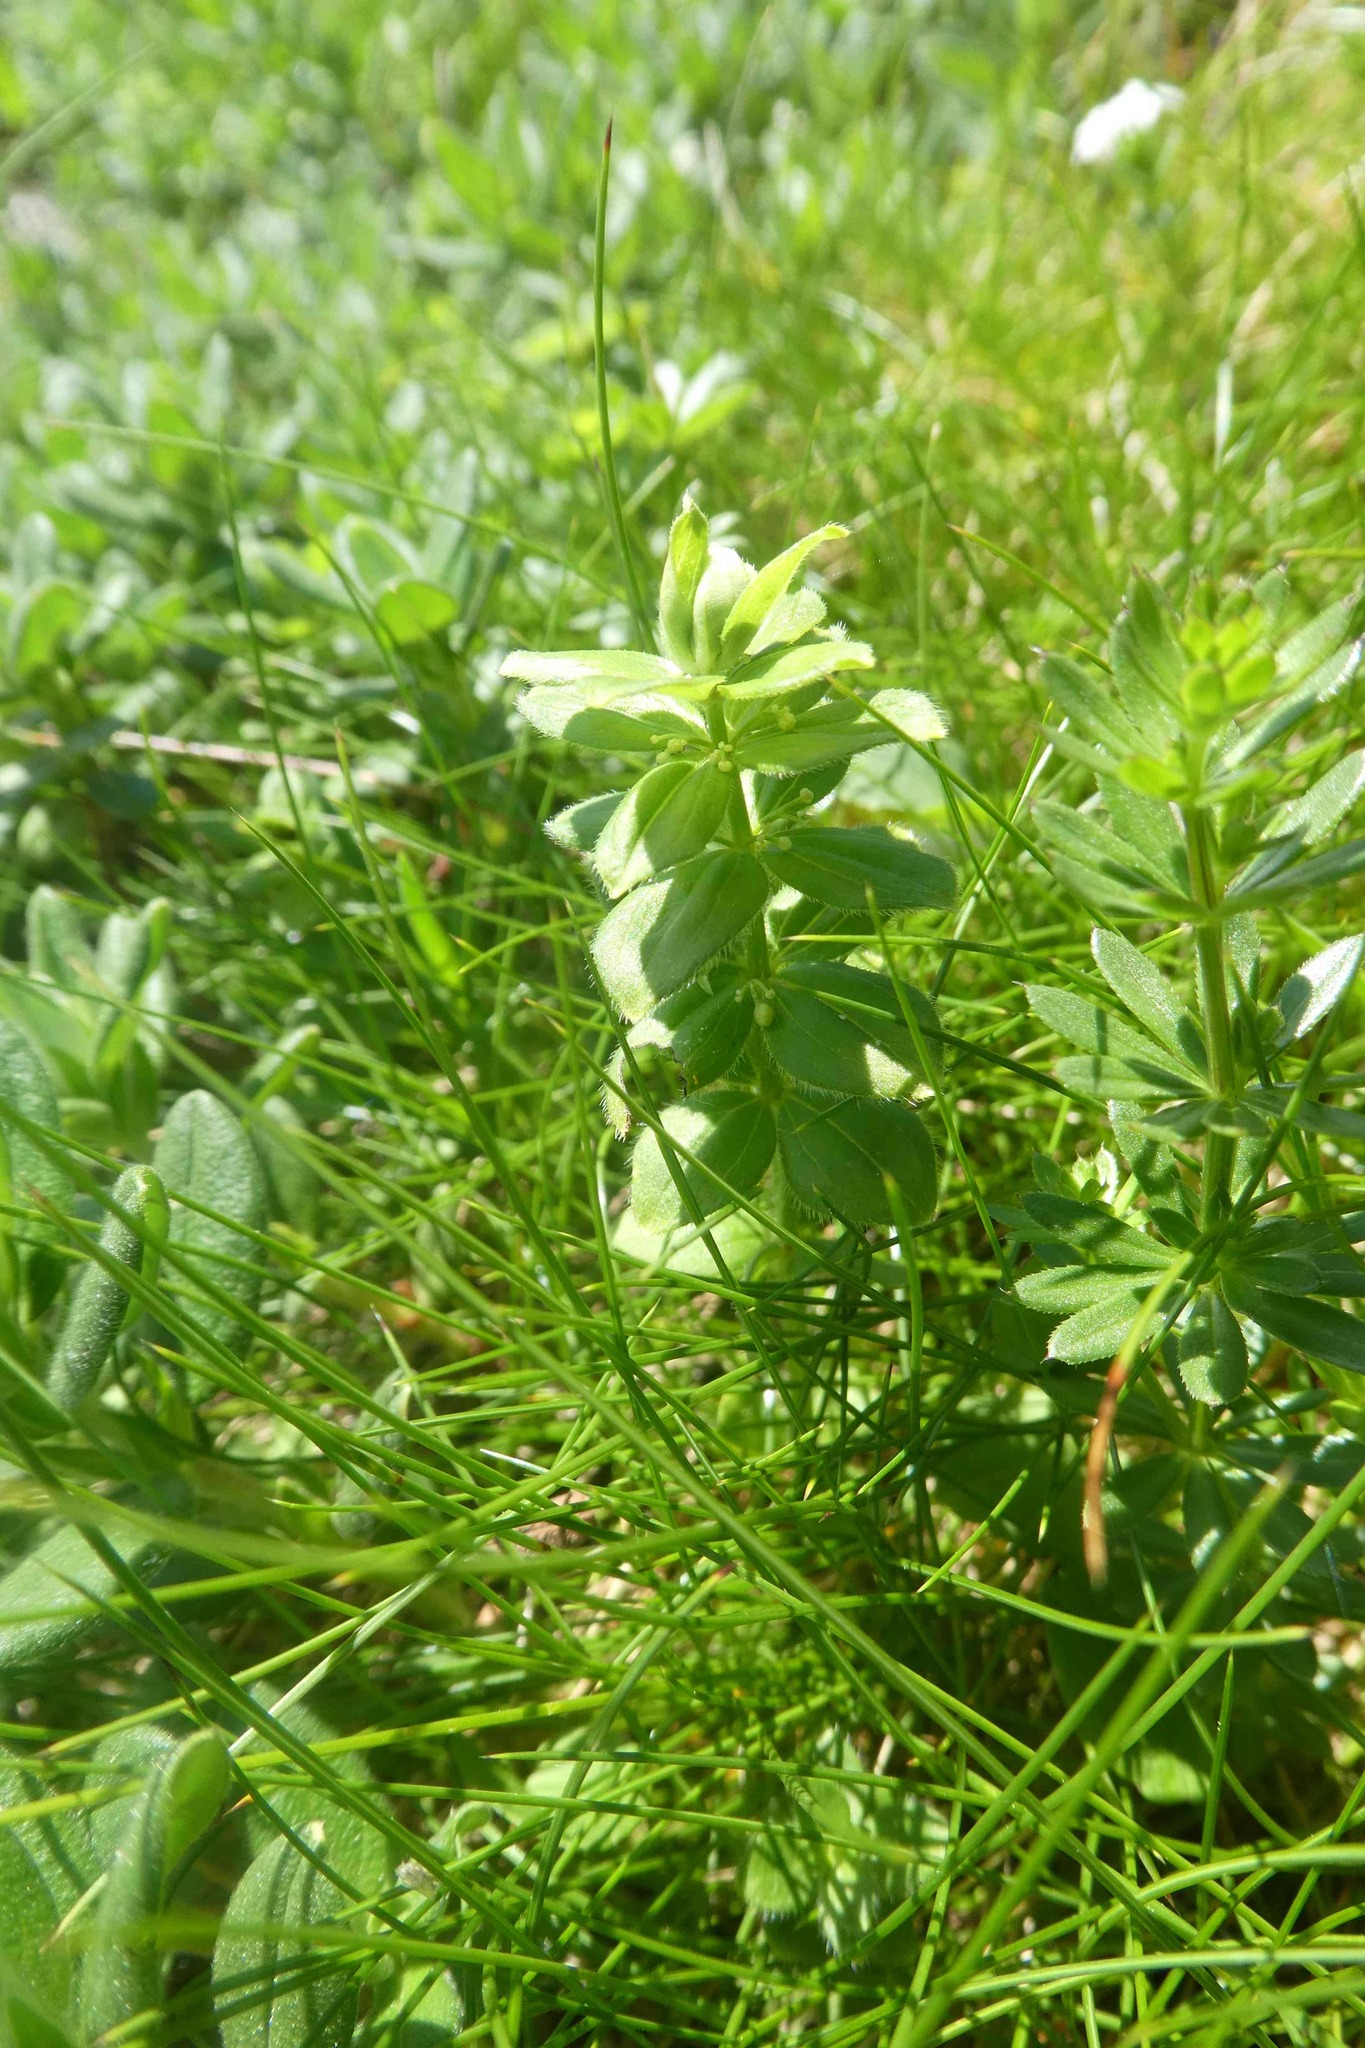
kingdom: Plantae
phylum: Tracheophyta
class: Magnoliopsida
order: Gentianales
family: Rubiaceae
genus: Cruciata
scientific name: Cruciata glabra
